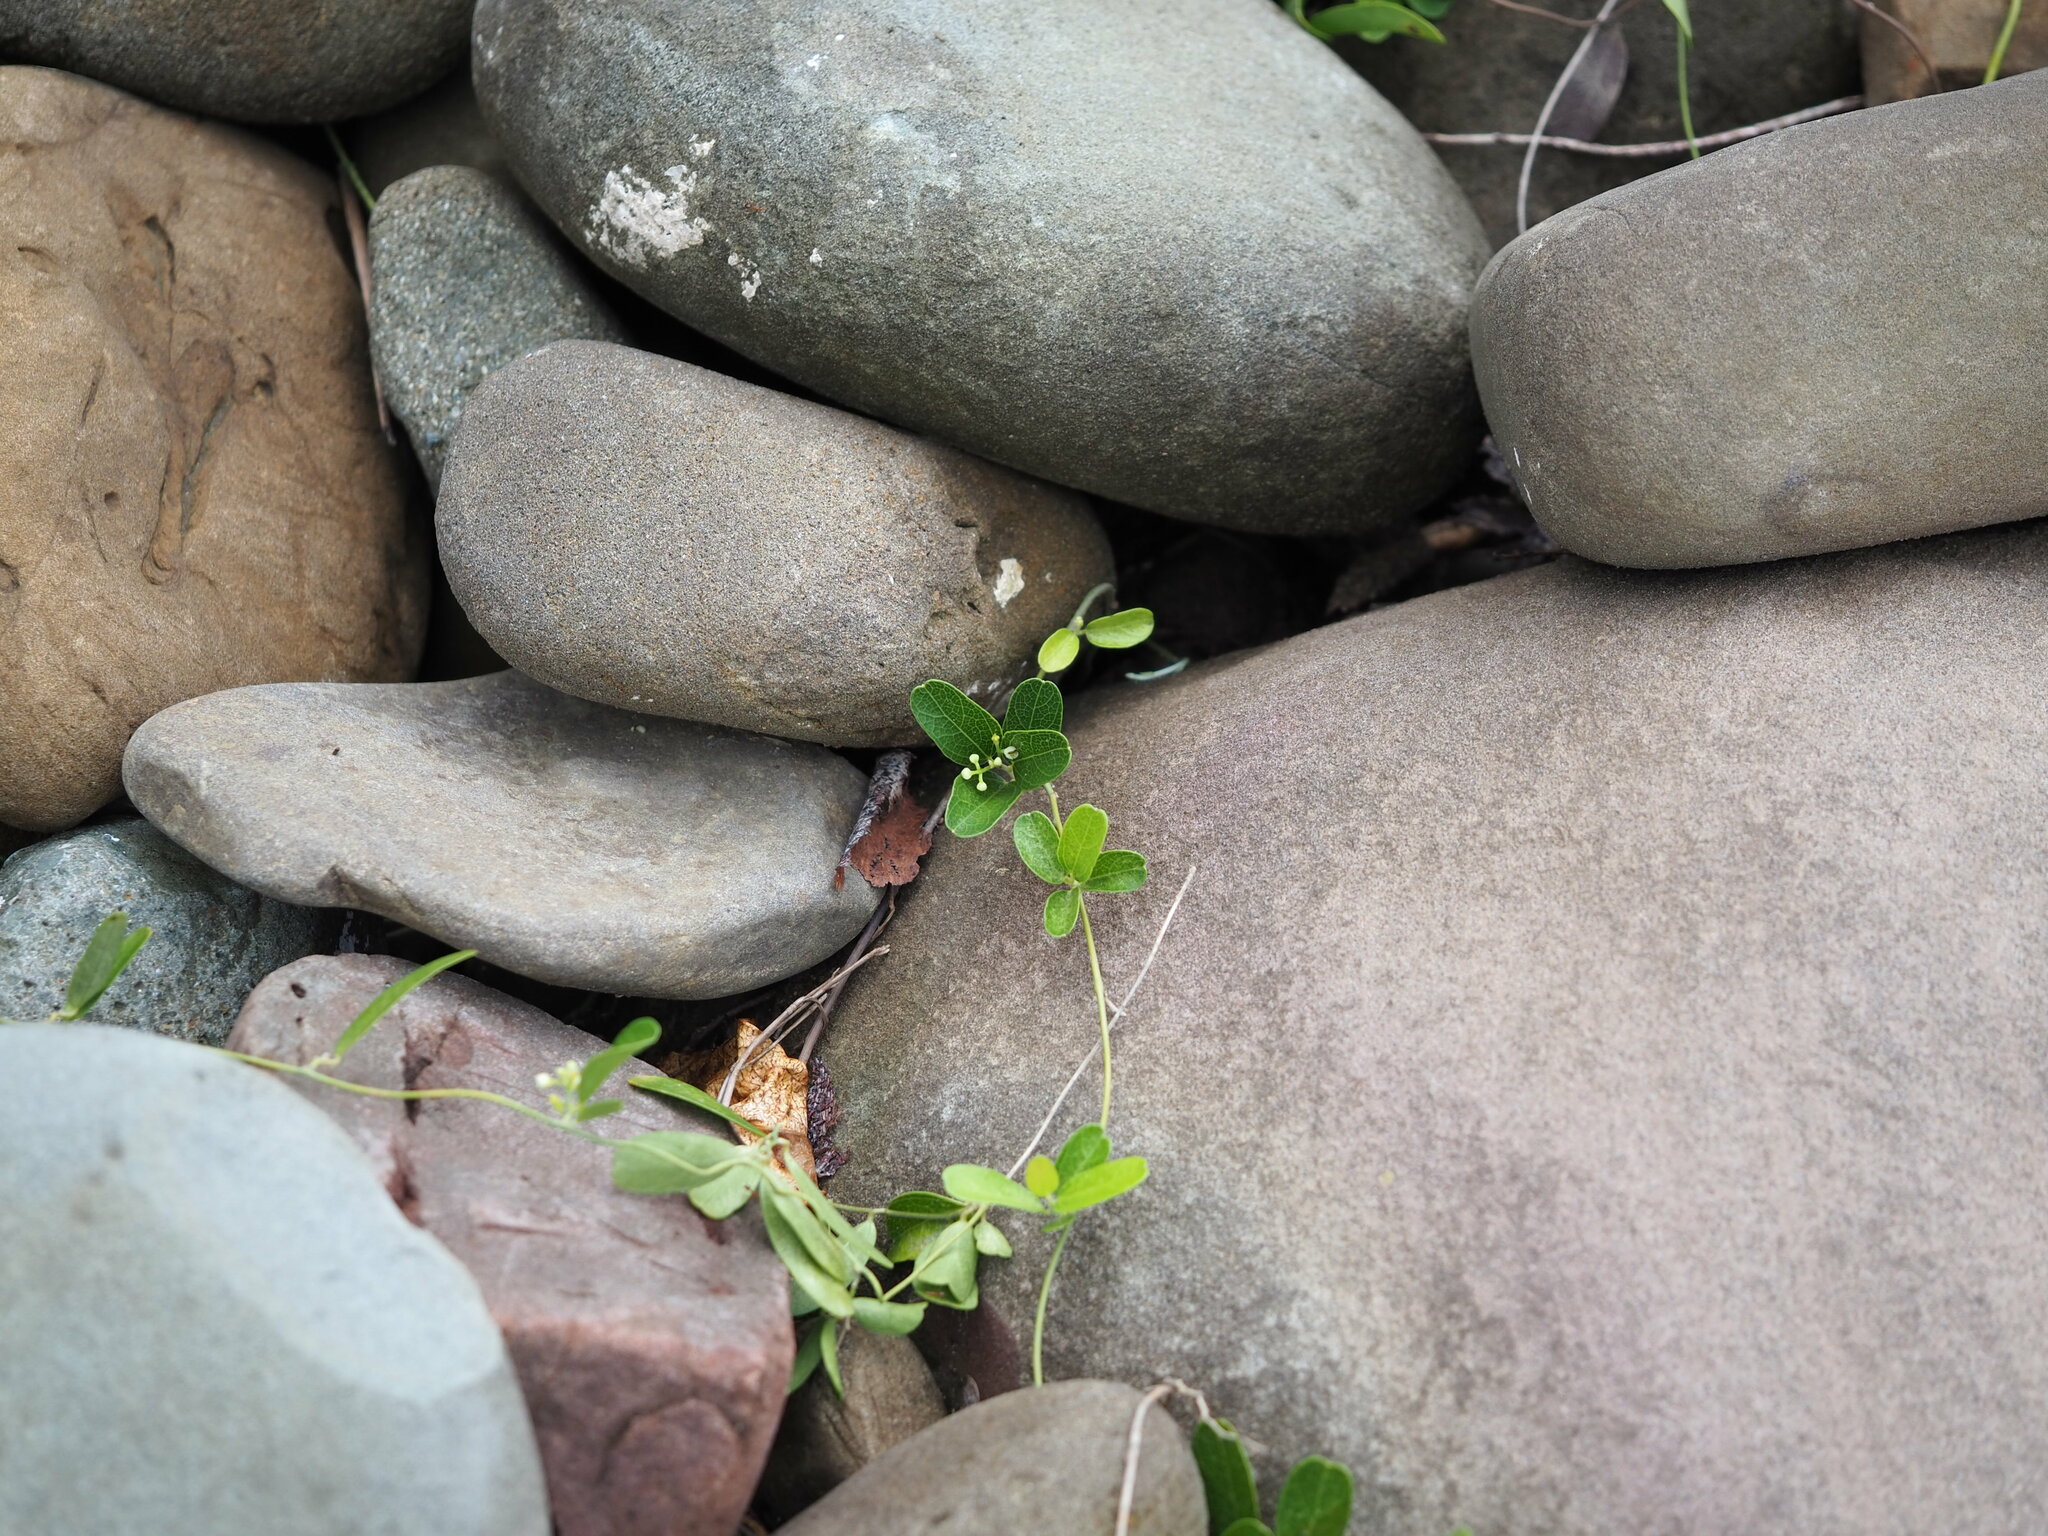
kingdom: Plantae
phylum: Tracheophyta
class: Magnoliopsida
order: Ranunculales
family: Menispermaceae
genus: Cocculus
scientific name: Cocculus orbiculatus
